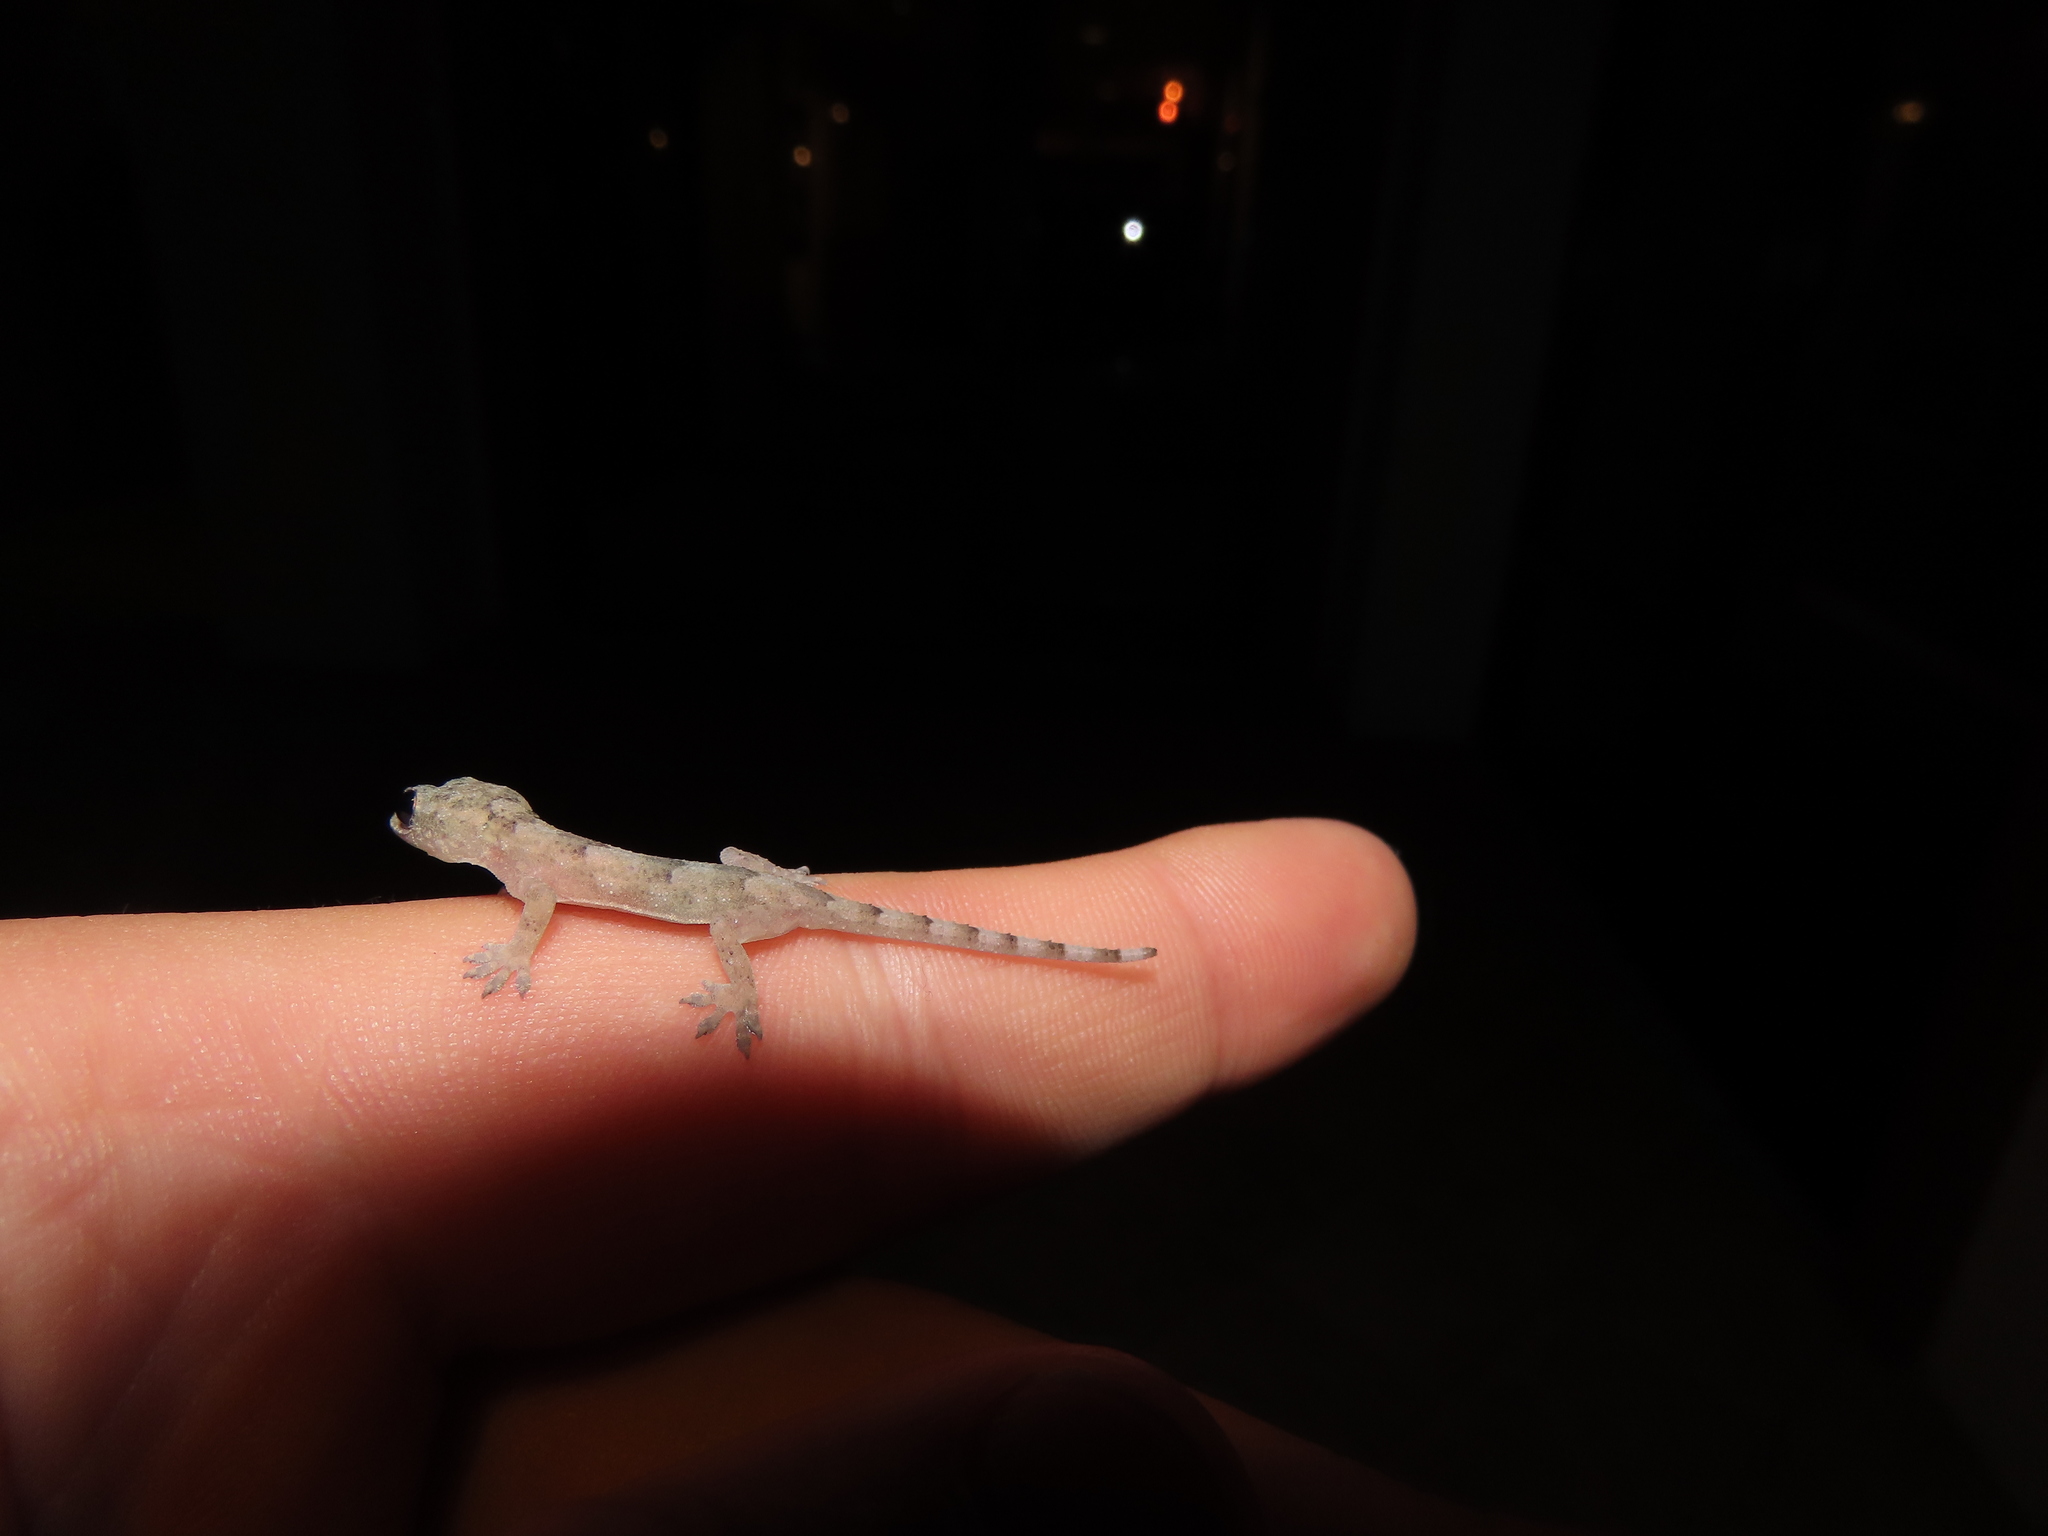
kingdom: Animalia
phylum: Chordata
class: Squamata
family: Gekkonidae
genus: Hemidactylus
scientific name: Hemidactylus mabouia
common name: House gecko
